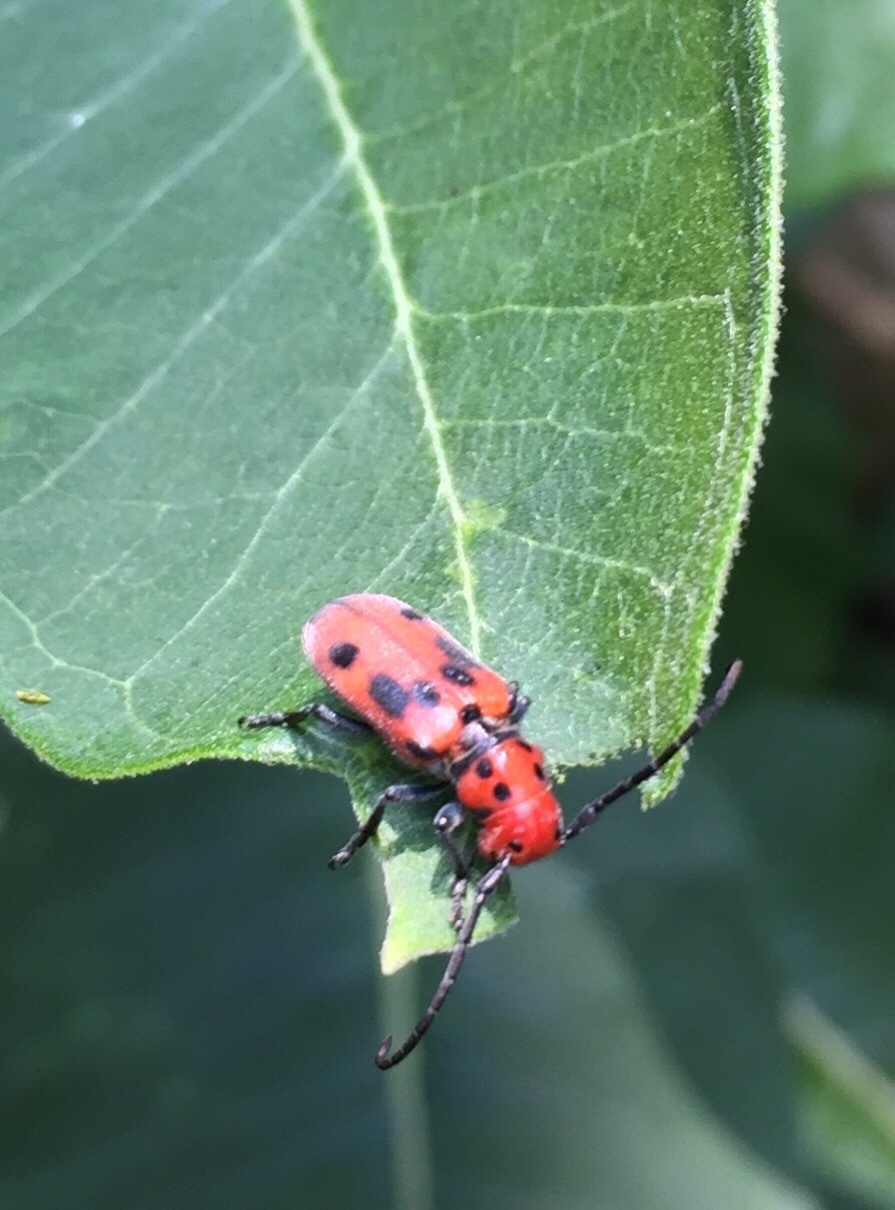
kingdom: Animalia
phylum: Arthropoda
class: Insecta
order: Coleoptera
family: Cerambycidae
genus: Tetraopes
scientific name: Tetraopes tetrophthalmus
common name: Red milkweed beetle
